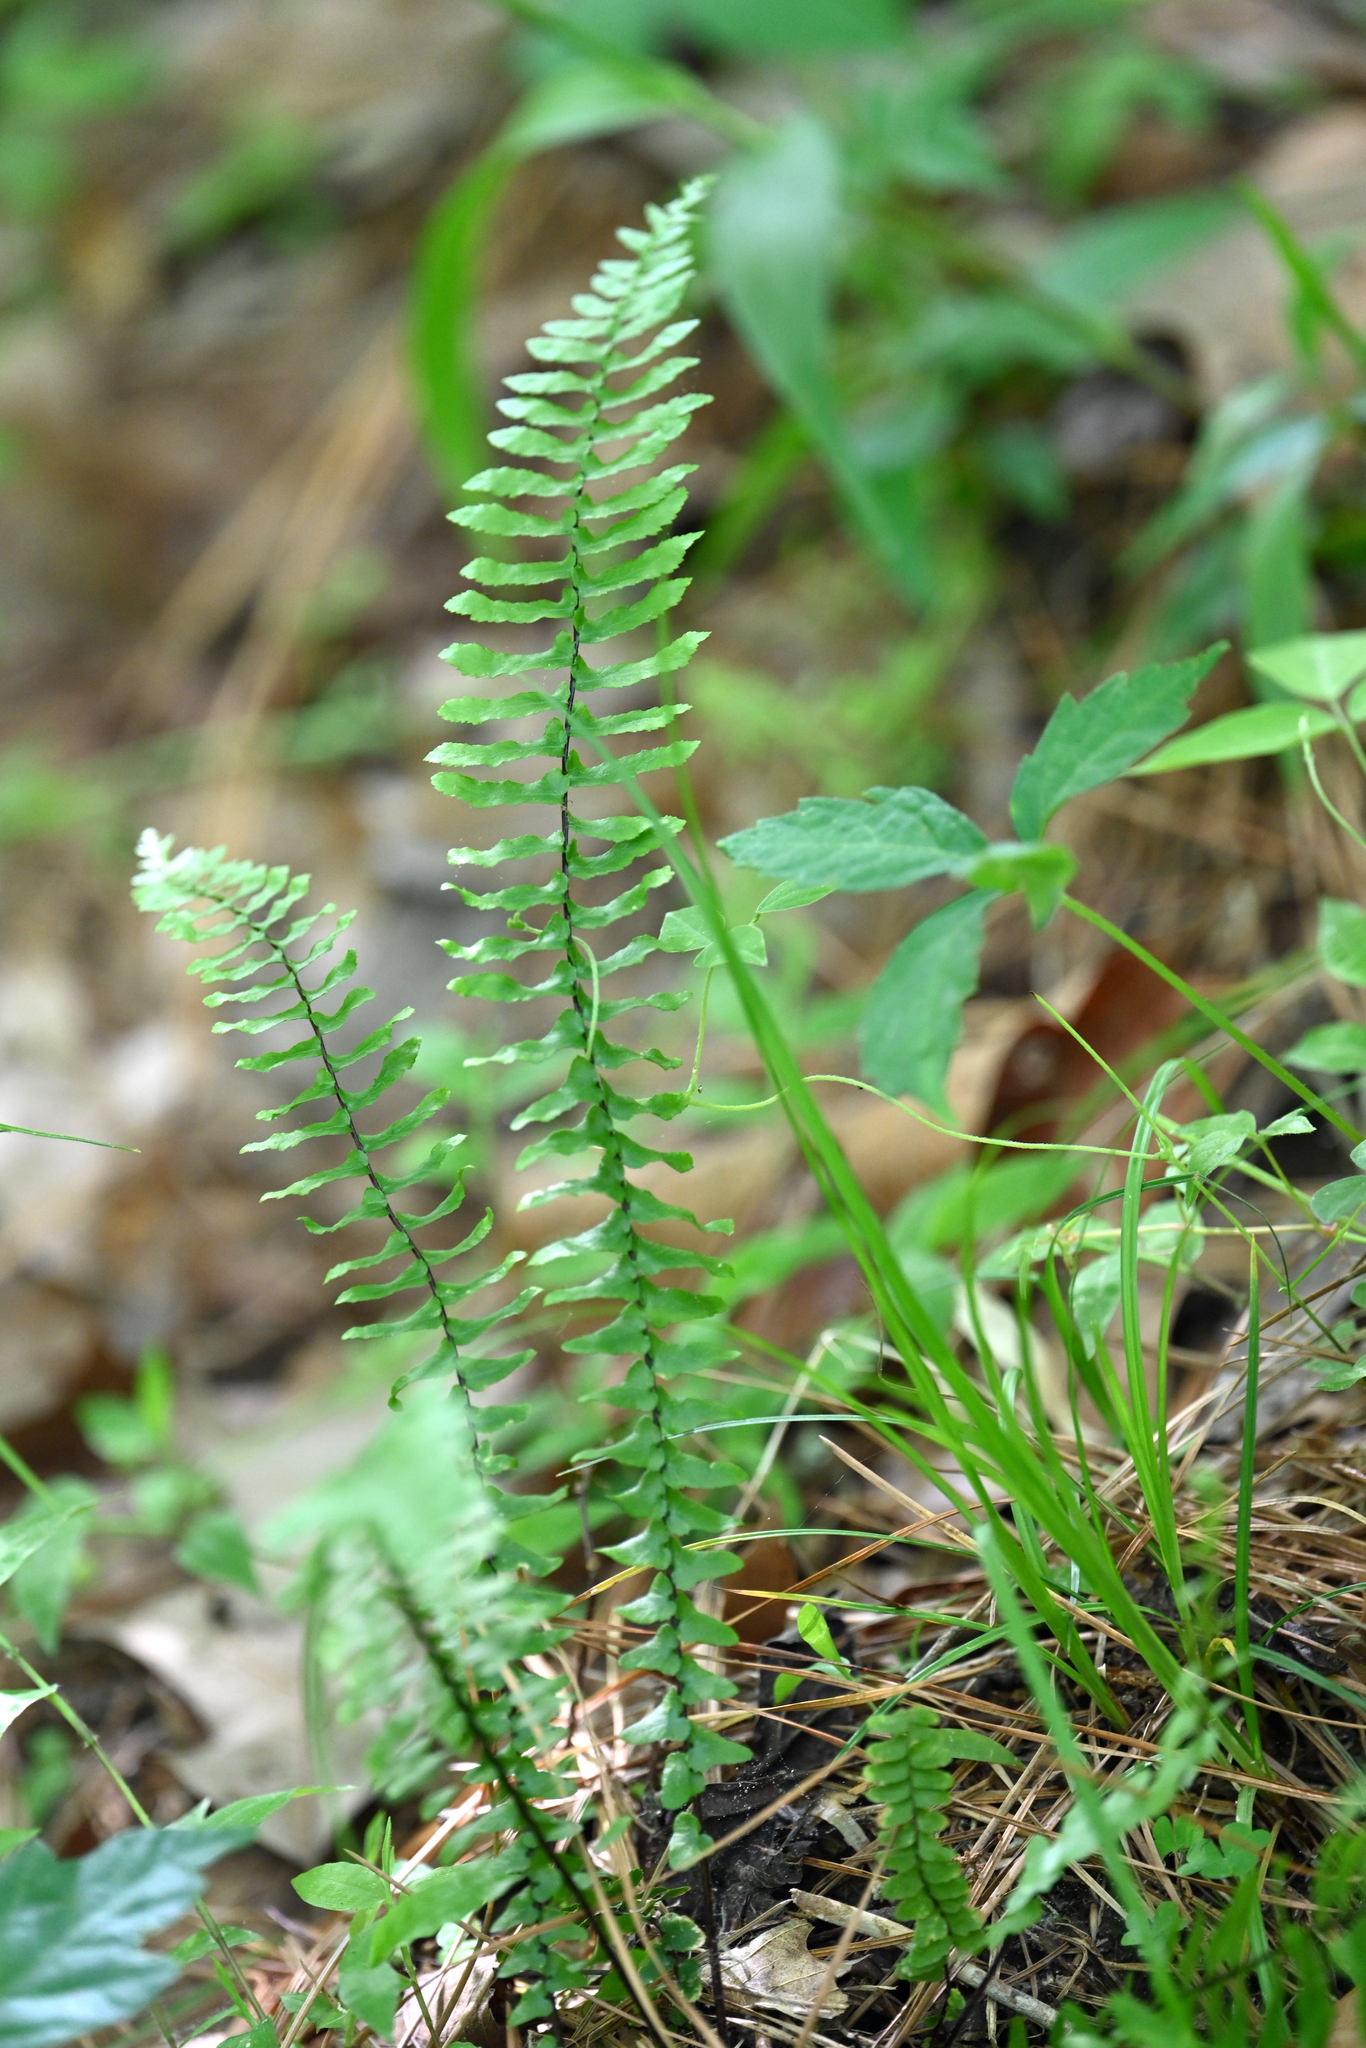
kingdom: Plantae
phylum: Tracheophyta
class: Polypodiopsida
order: Polypodiales
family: Aspleniaceae
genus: Asplenium
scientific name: Asplenium platyneuron
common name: Ebony spleenwort
